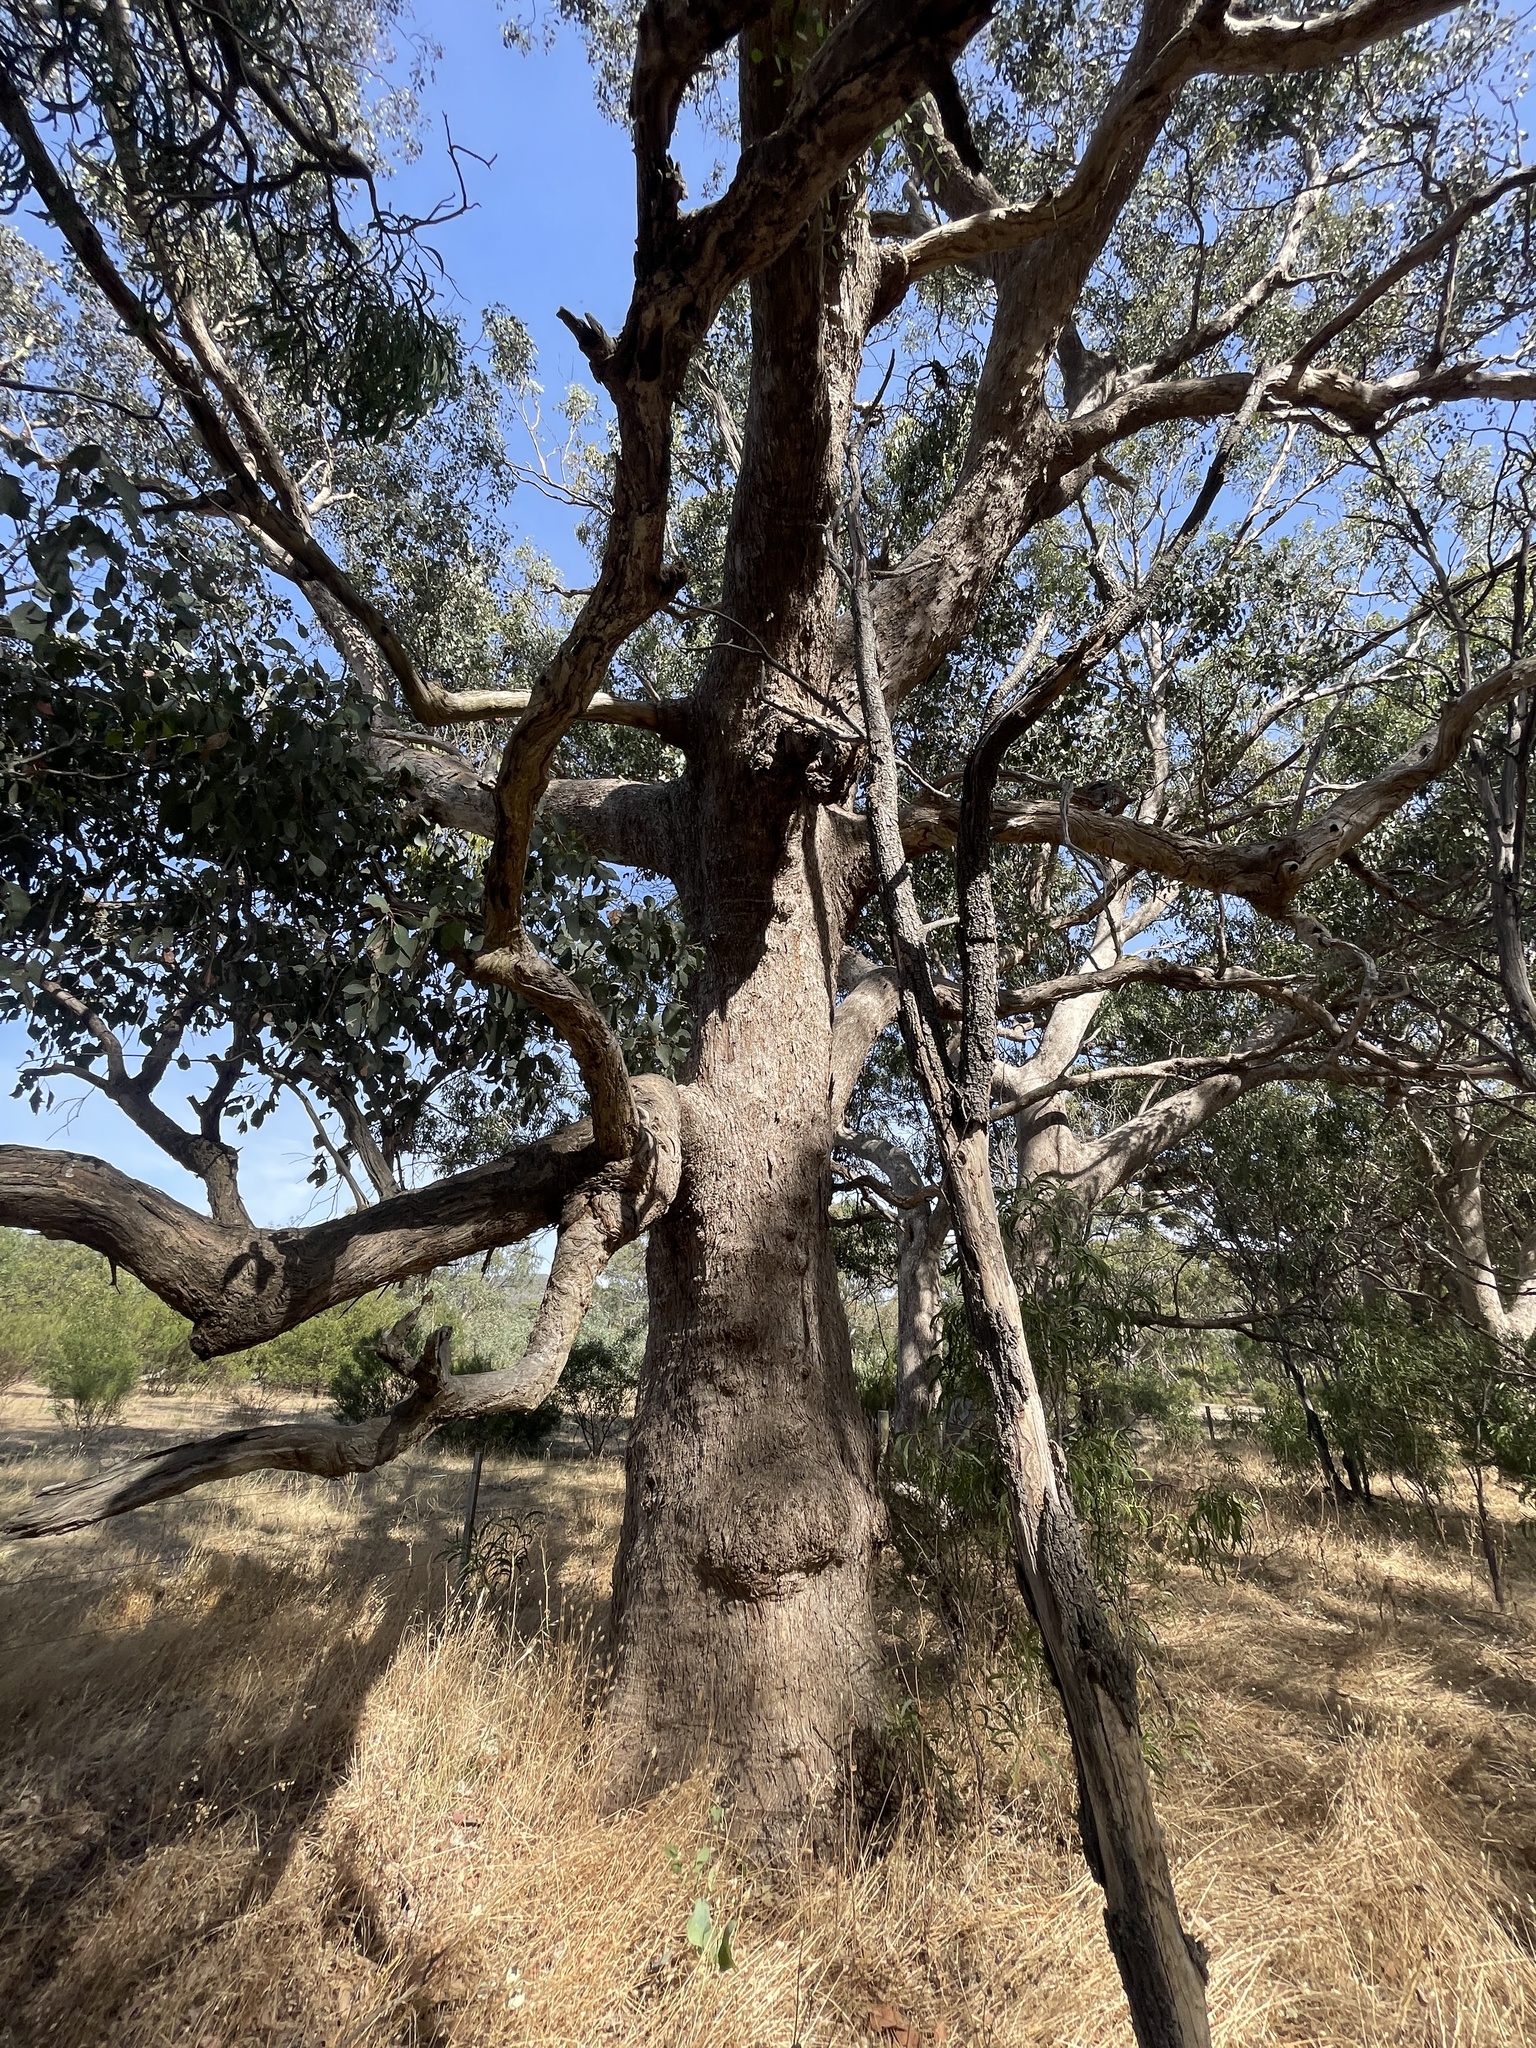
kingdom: Plantae
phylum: Tracheophyta
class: Magnoliopsida
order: Myrtales
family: Myrtaceae
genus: Eucalyptus
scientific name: Eucalyptus polyanthemos
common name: Red-box
